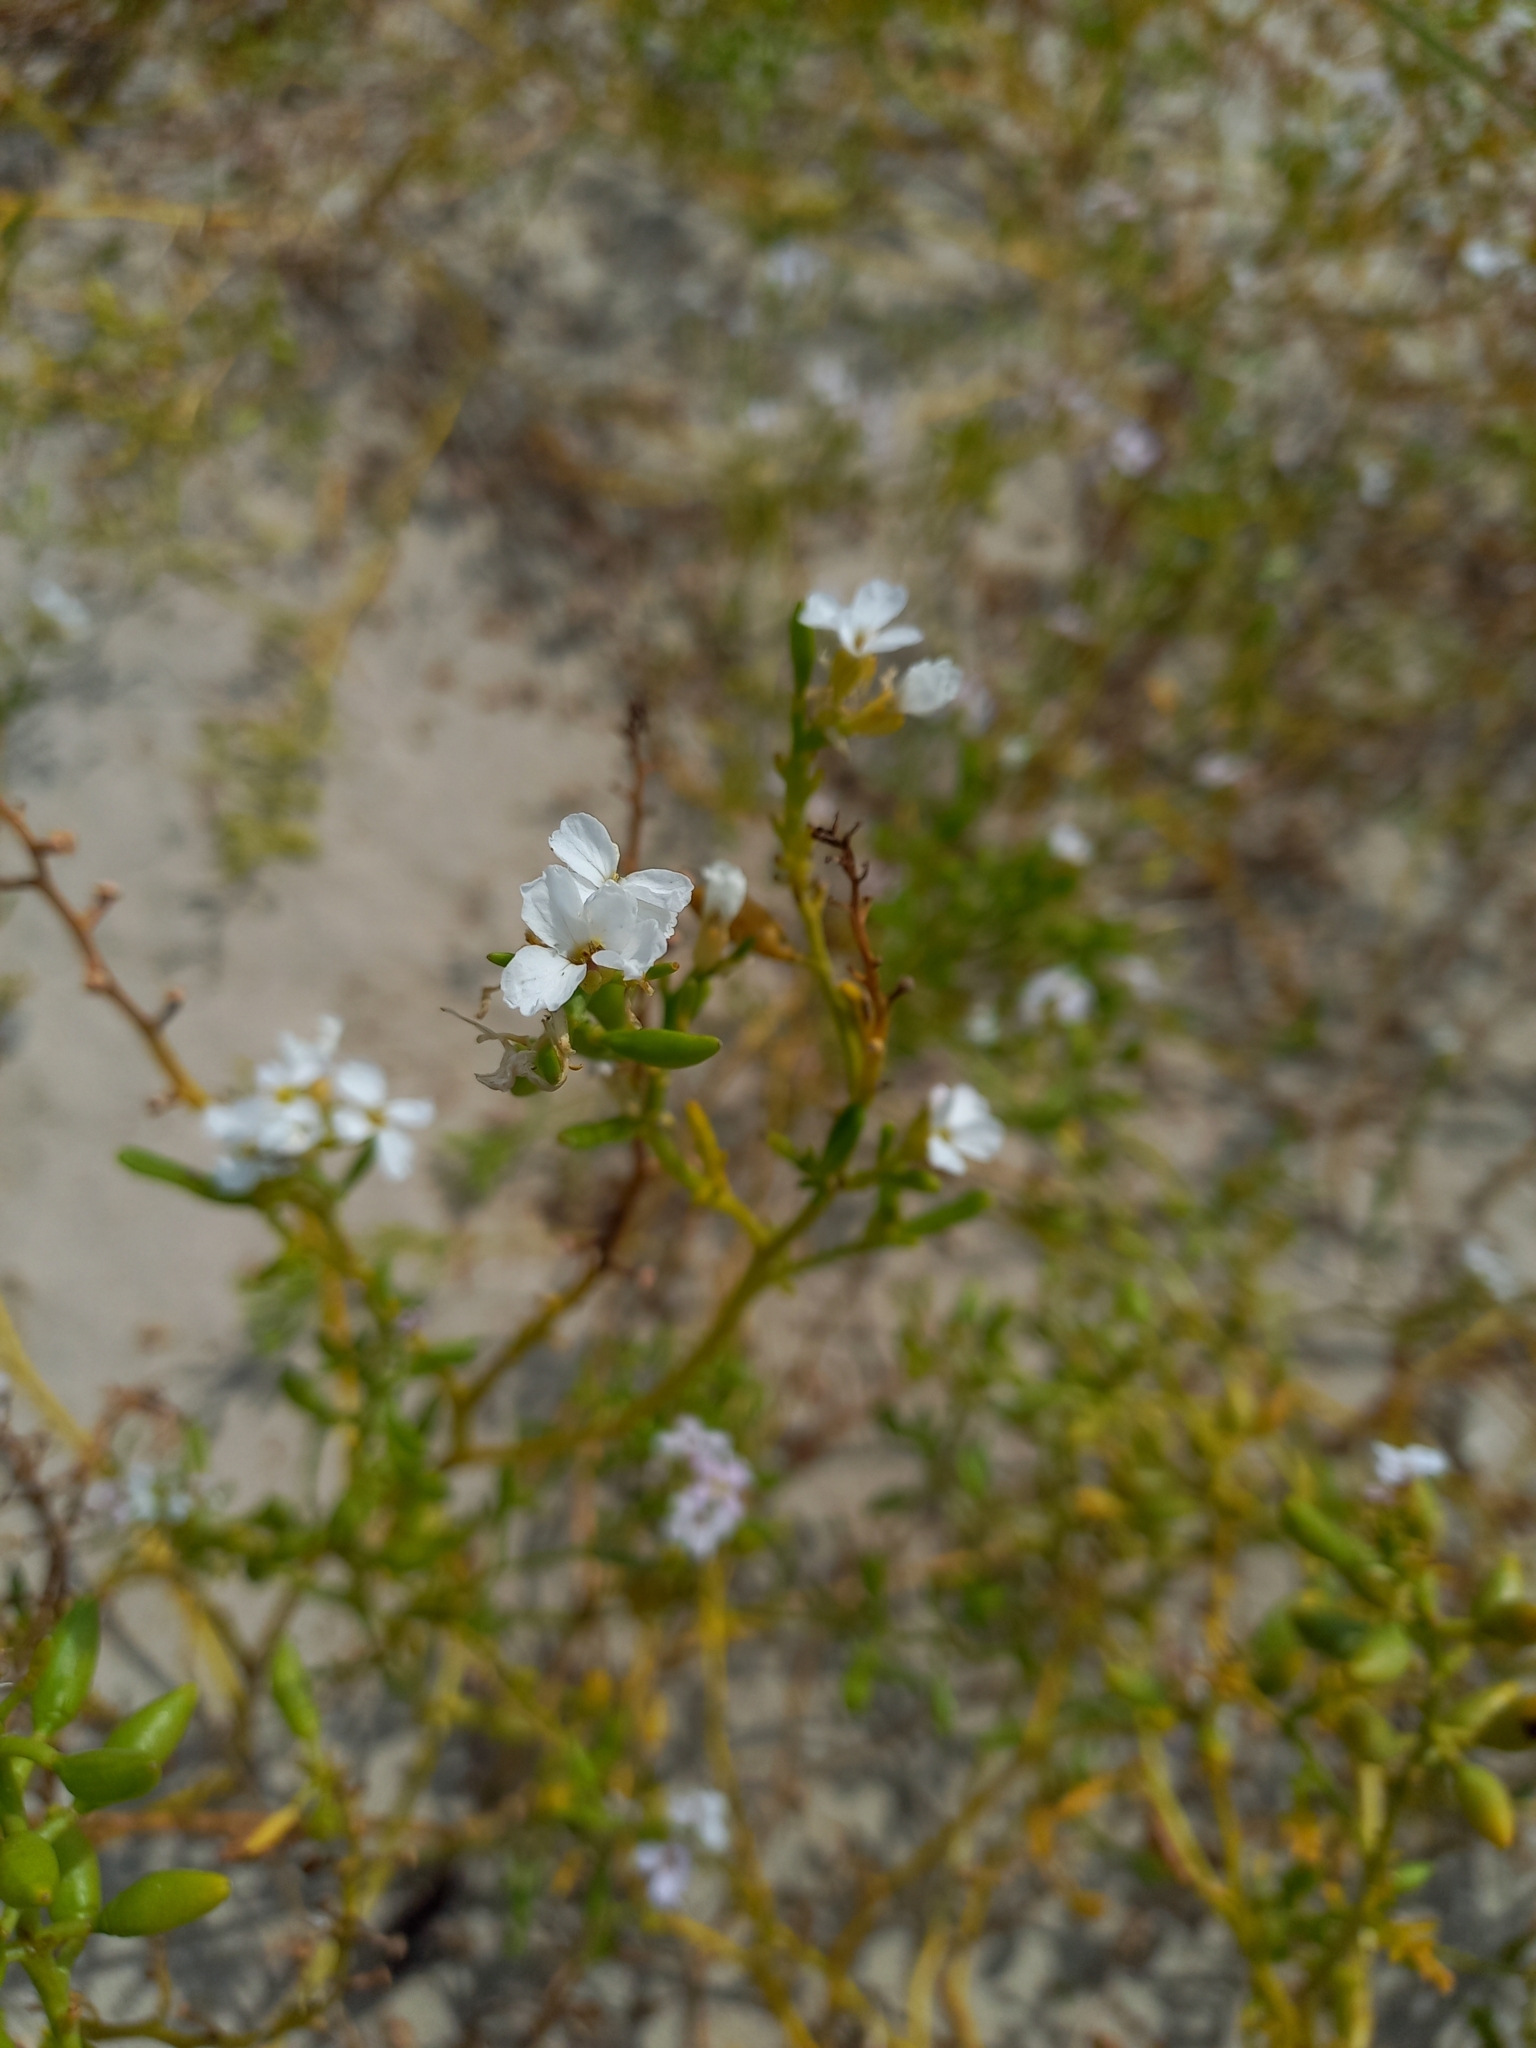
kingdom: Plantae
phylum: Tracheophyta
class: Magnoliopsida
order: Brassicales
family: Brassicaceae
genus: Cakile
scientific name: Cakile maritima
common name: Sea rocket
